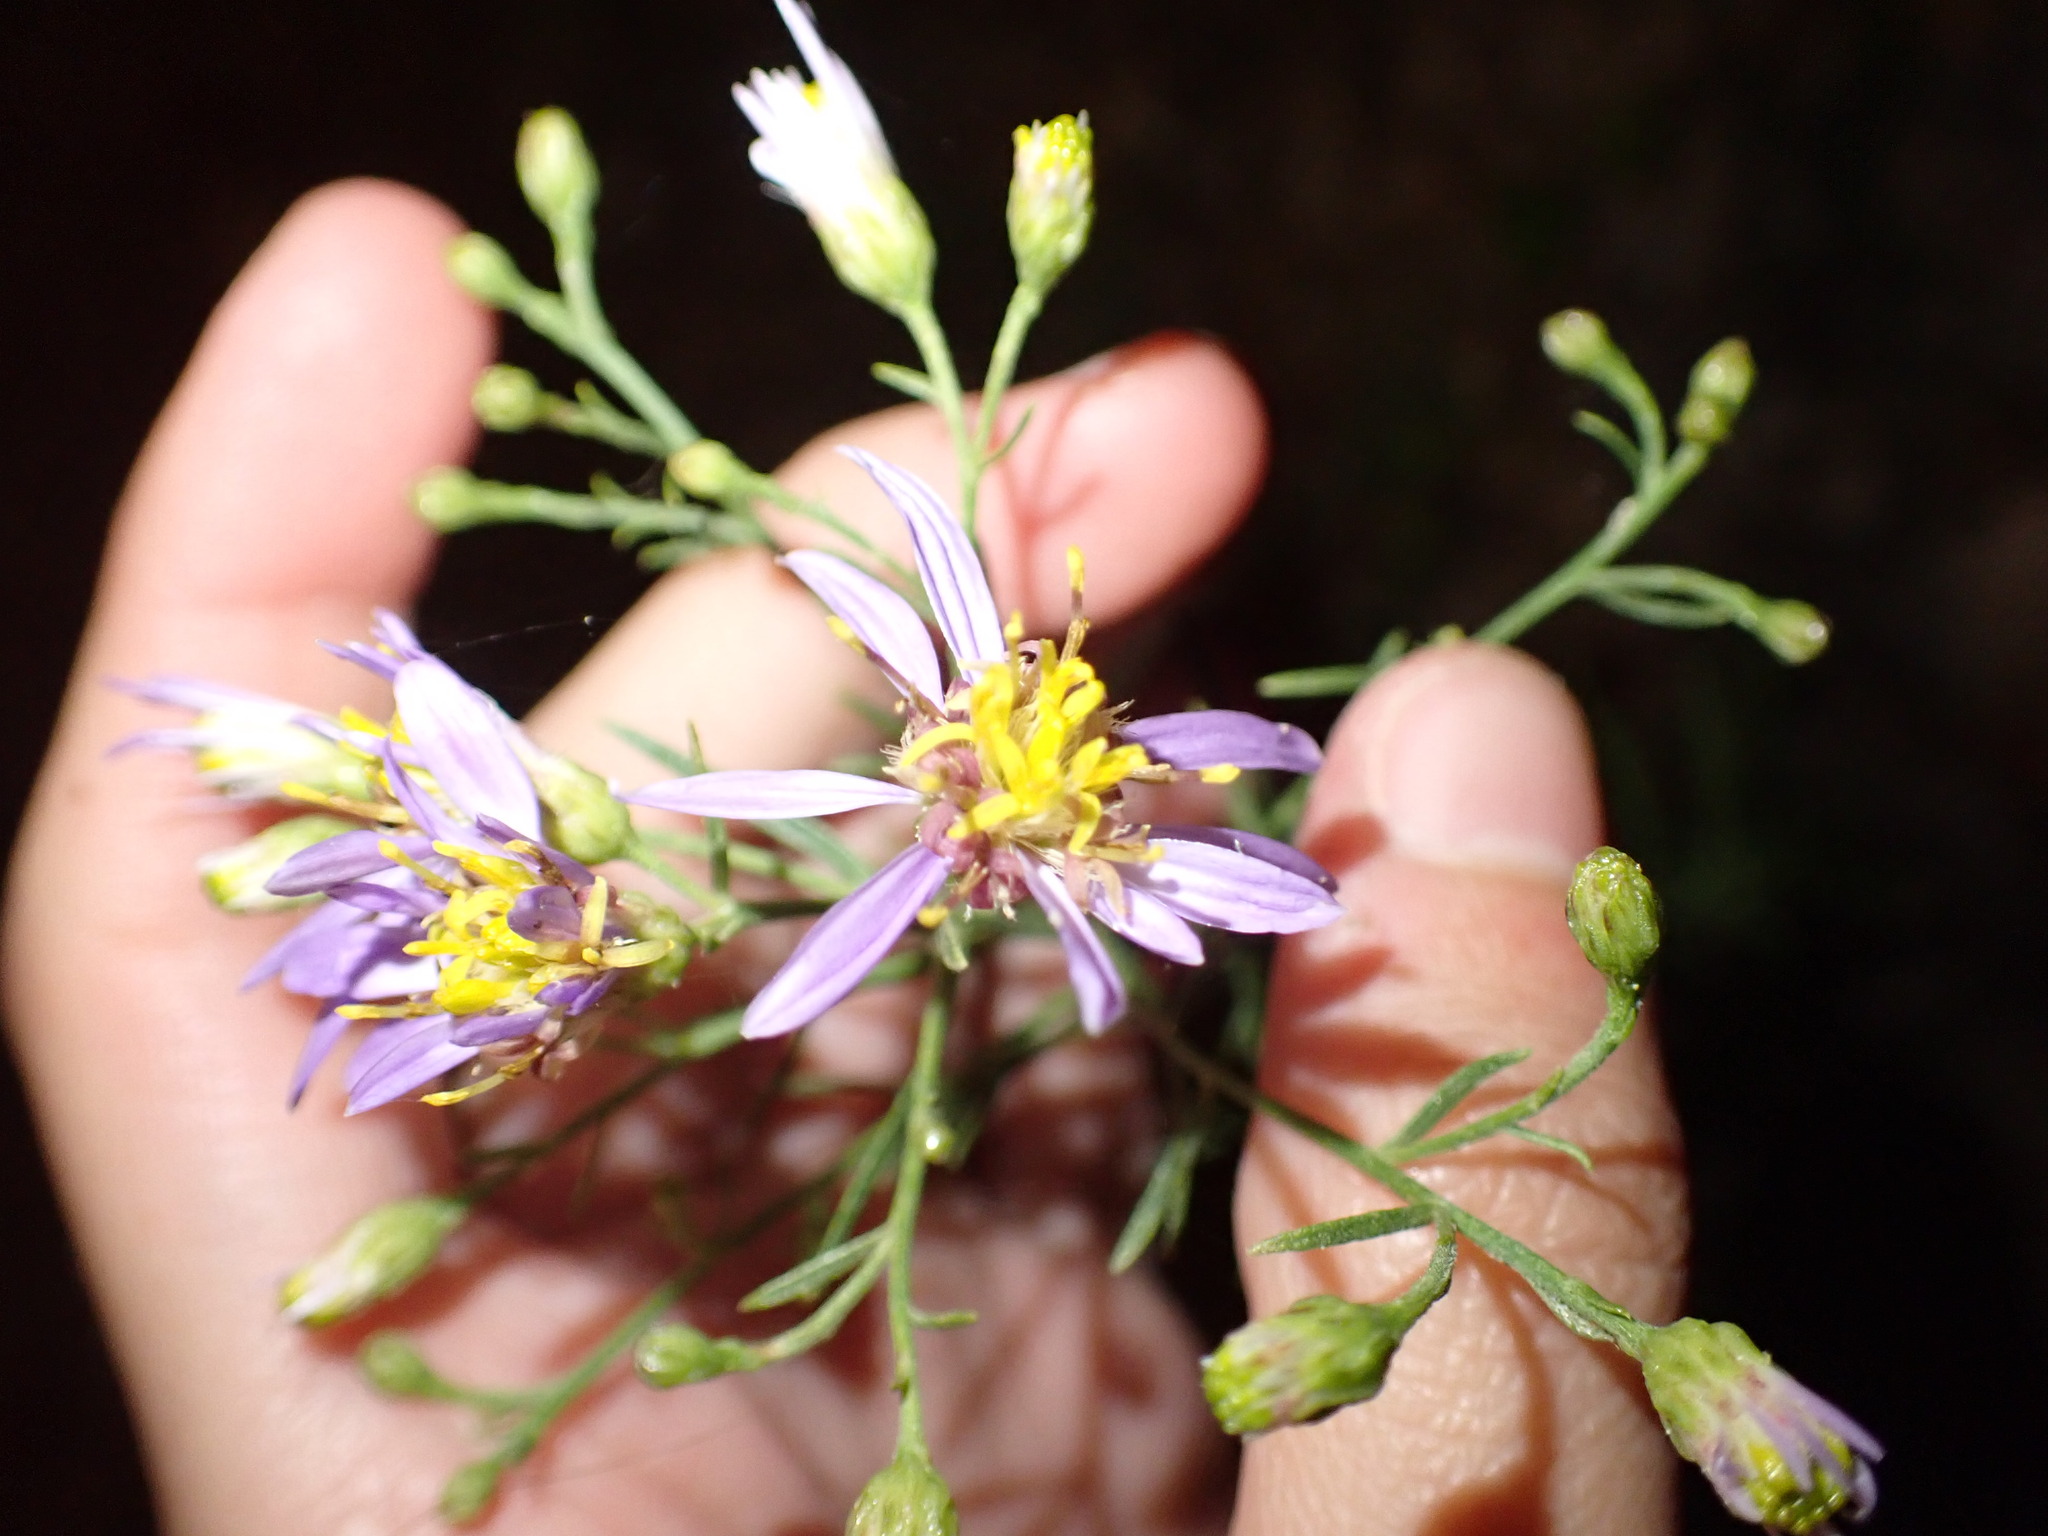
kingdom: Plantae
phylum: Tracheophyta
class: Magnoliopsida
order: Asterales
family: Asteraceae
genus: Galatella
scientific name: Galatella sedifolia
